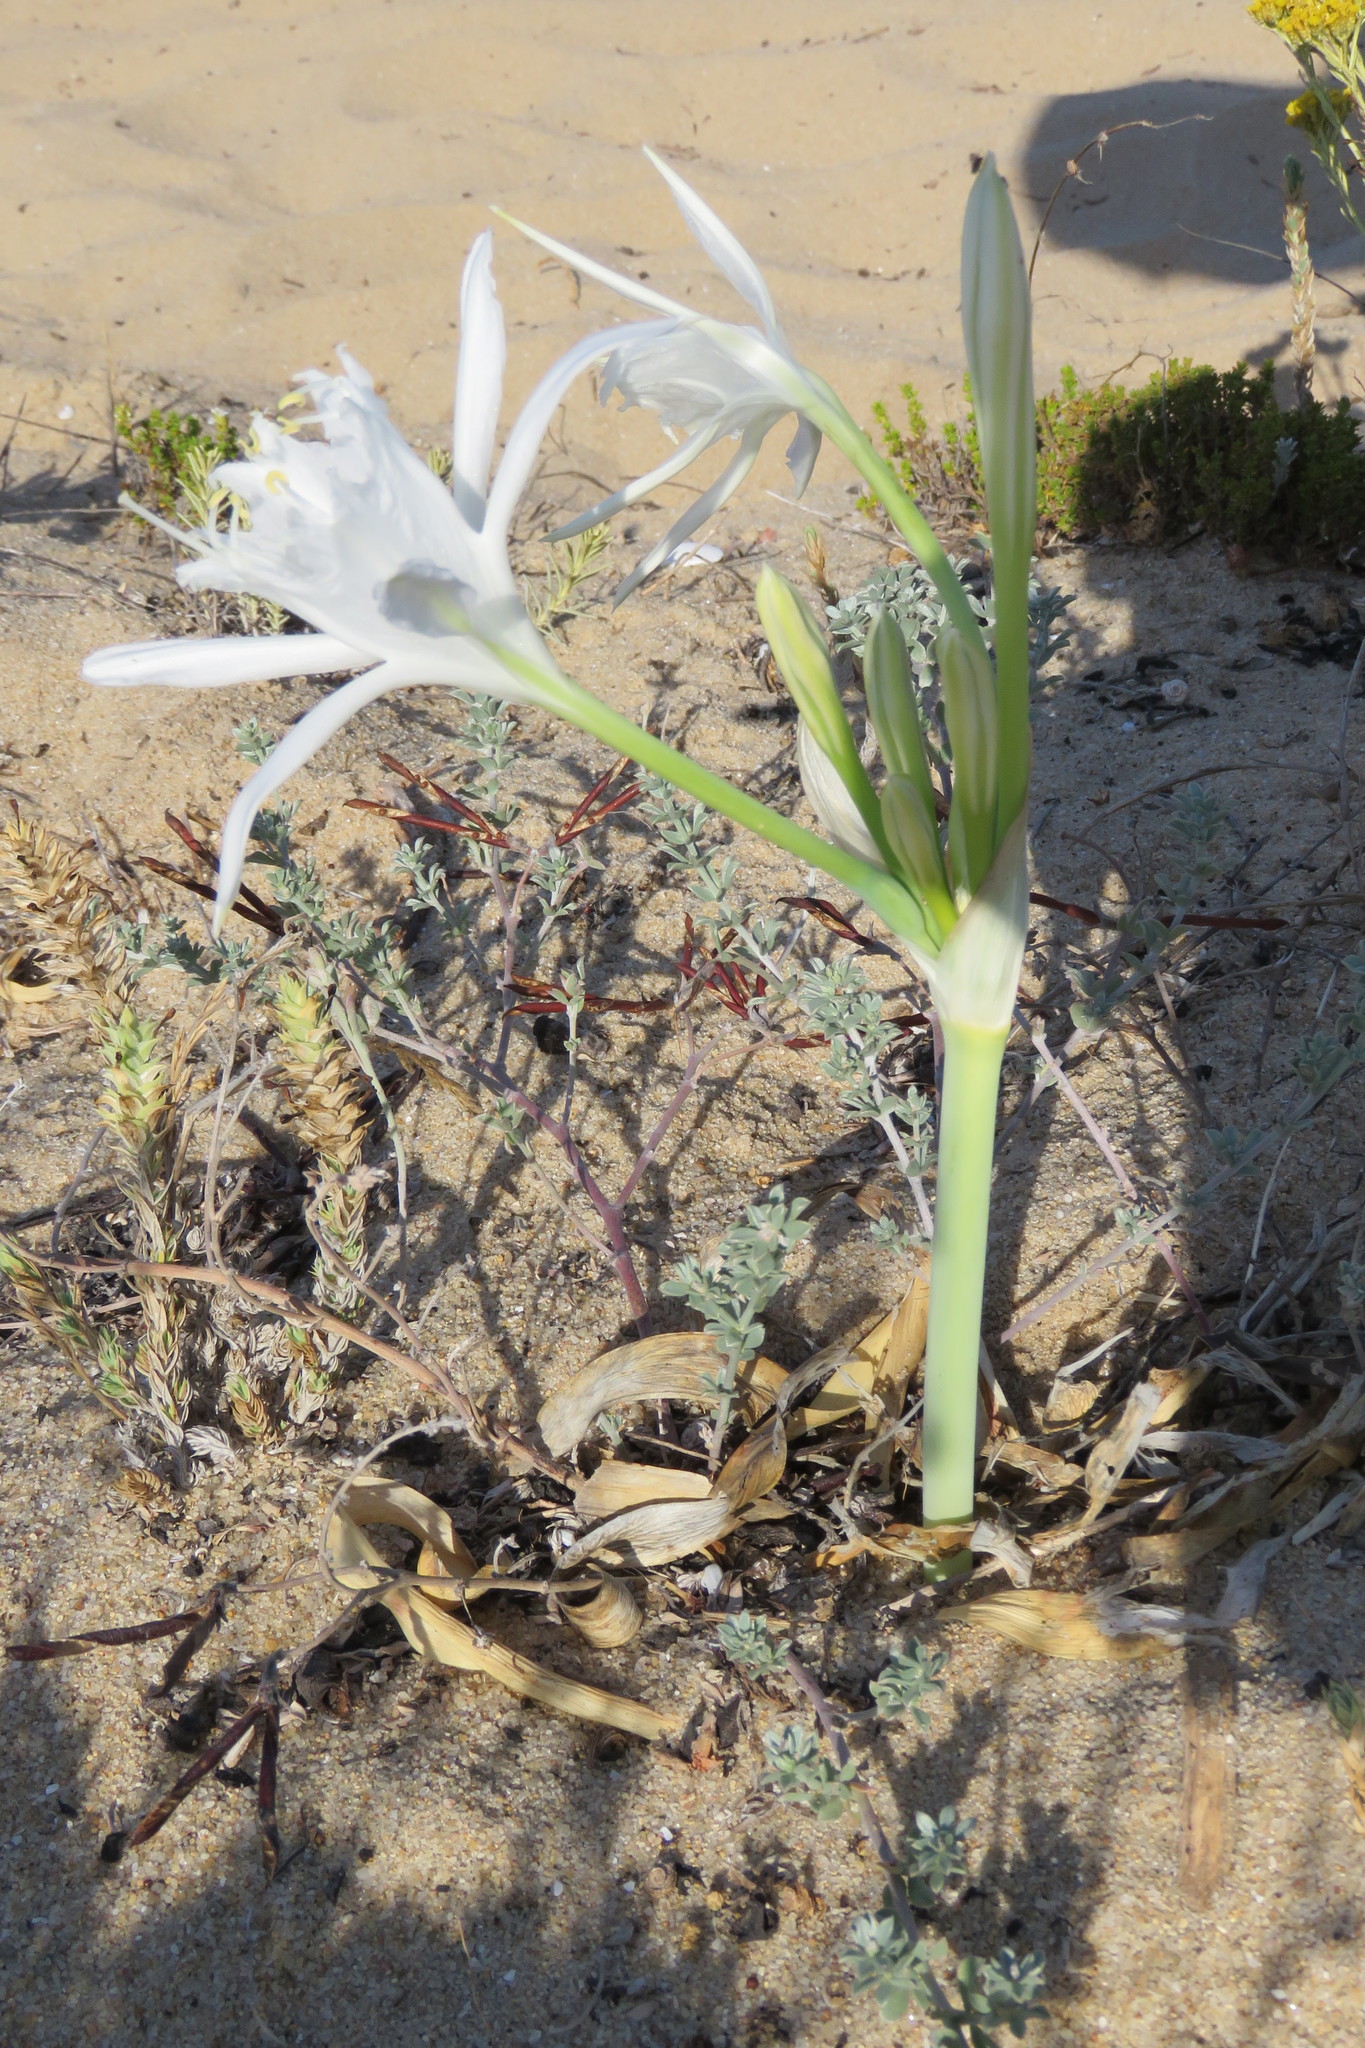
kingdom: Plantae
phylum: Tracheophyta
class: Liliopsida
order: Asparagales
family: Amaryllidaceae
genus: Pancratium
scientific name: Pancratium maritimum
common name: Sea-daffodil
